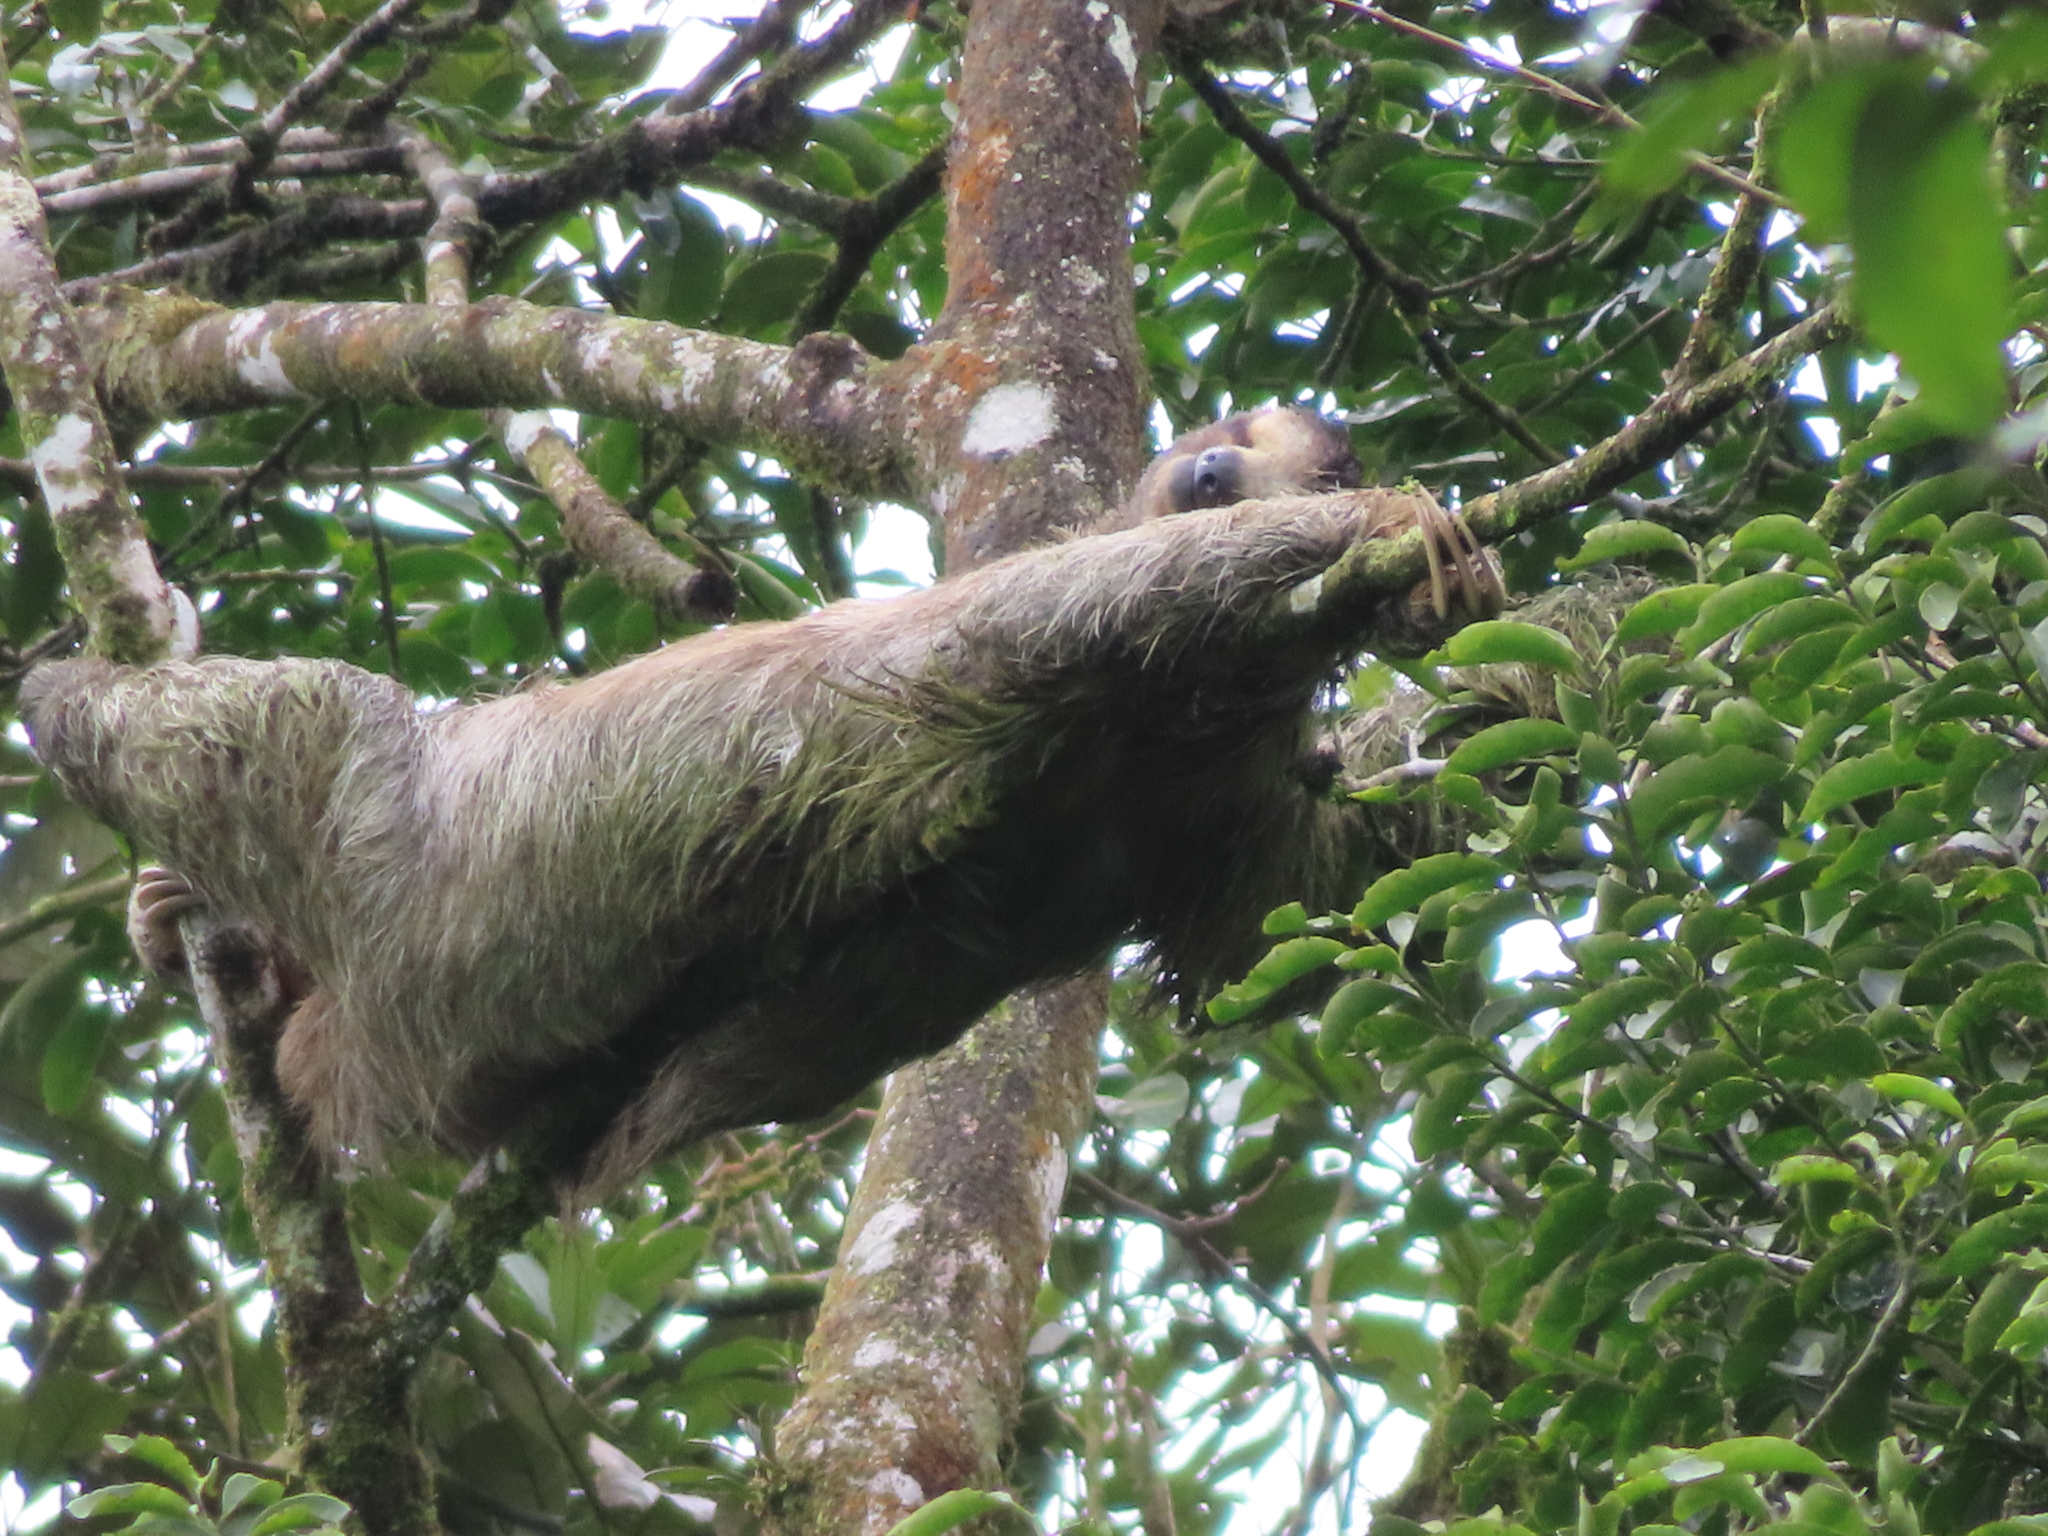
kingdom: Animalia
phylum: Chordata
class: Mammalia
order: Pilosa
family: Bradypodidae
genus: Bradypus
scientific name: Bradypus variegatus
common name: Brown-throated three-toed sloth
